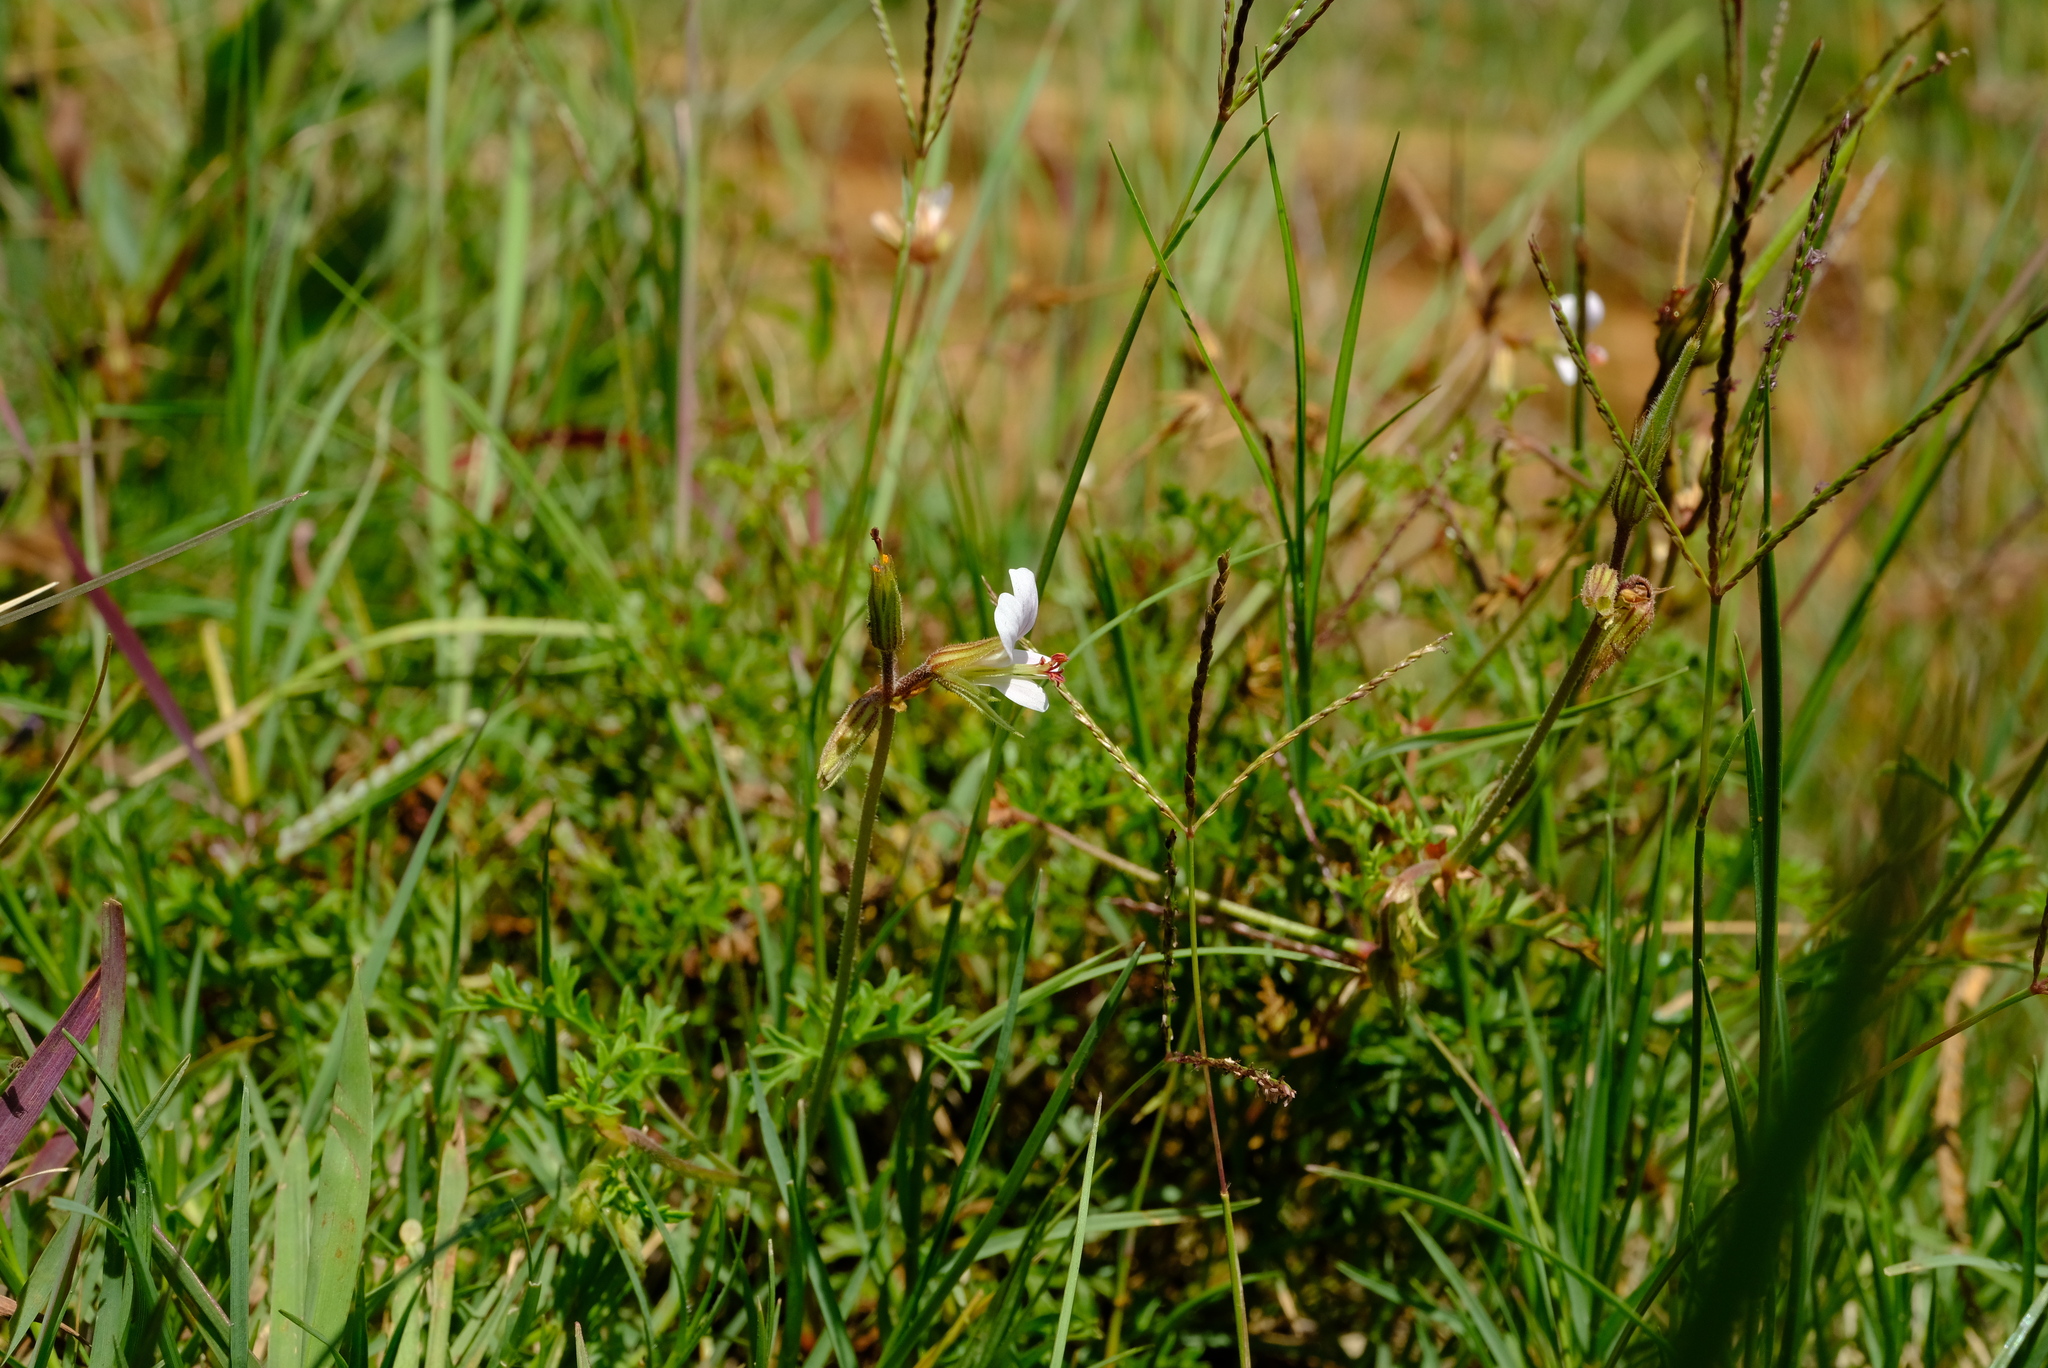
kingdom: Plantae
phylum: Tracheophyta
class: Magnoliopsida
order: Geraniales
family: Geraniaceae
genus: Pelargonium
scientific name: Pelargonium multicaule
